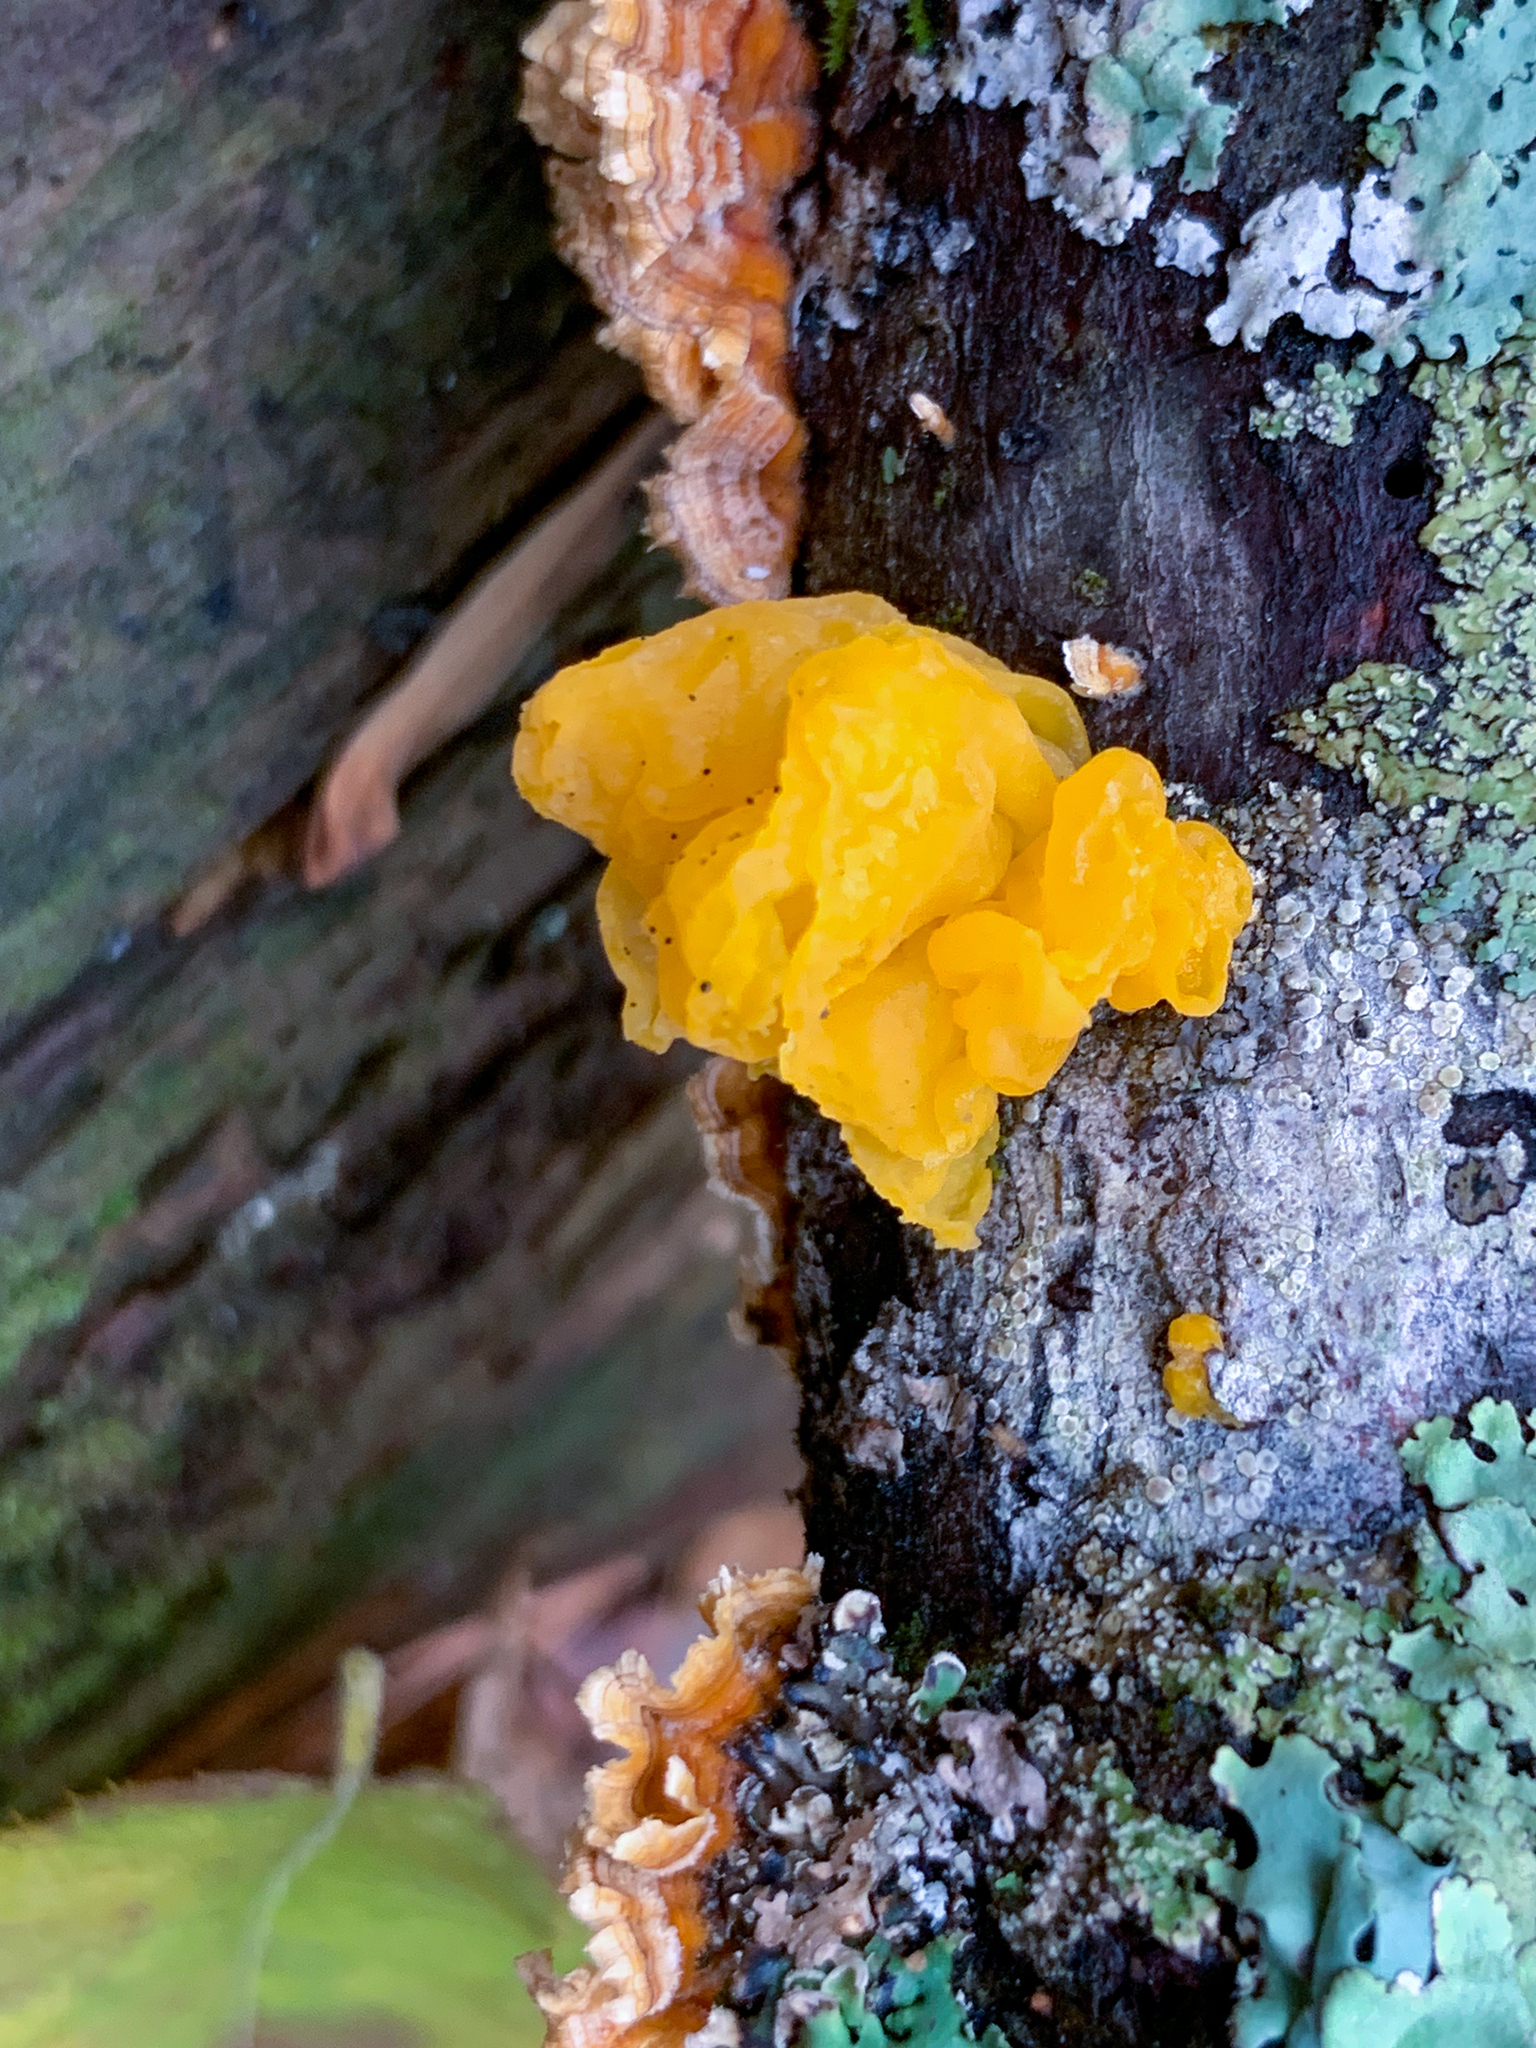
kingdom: Fungi
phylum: Basidiomycota
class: Tremellomycetes
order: Tremellales
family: Naemateliaceae
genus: Naematelia
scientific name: Naematelia aurantia
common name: Golden ear
